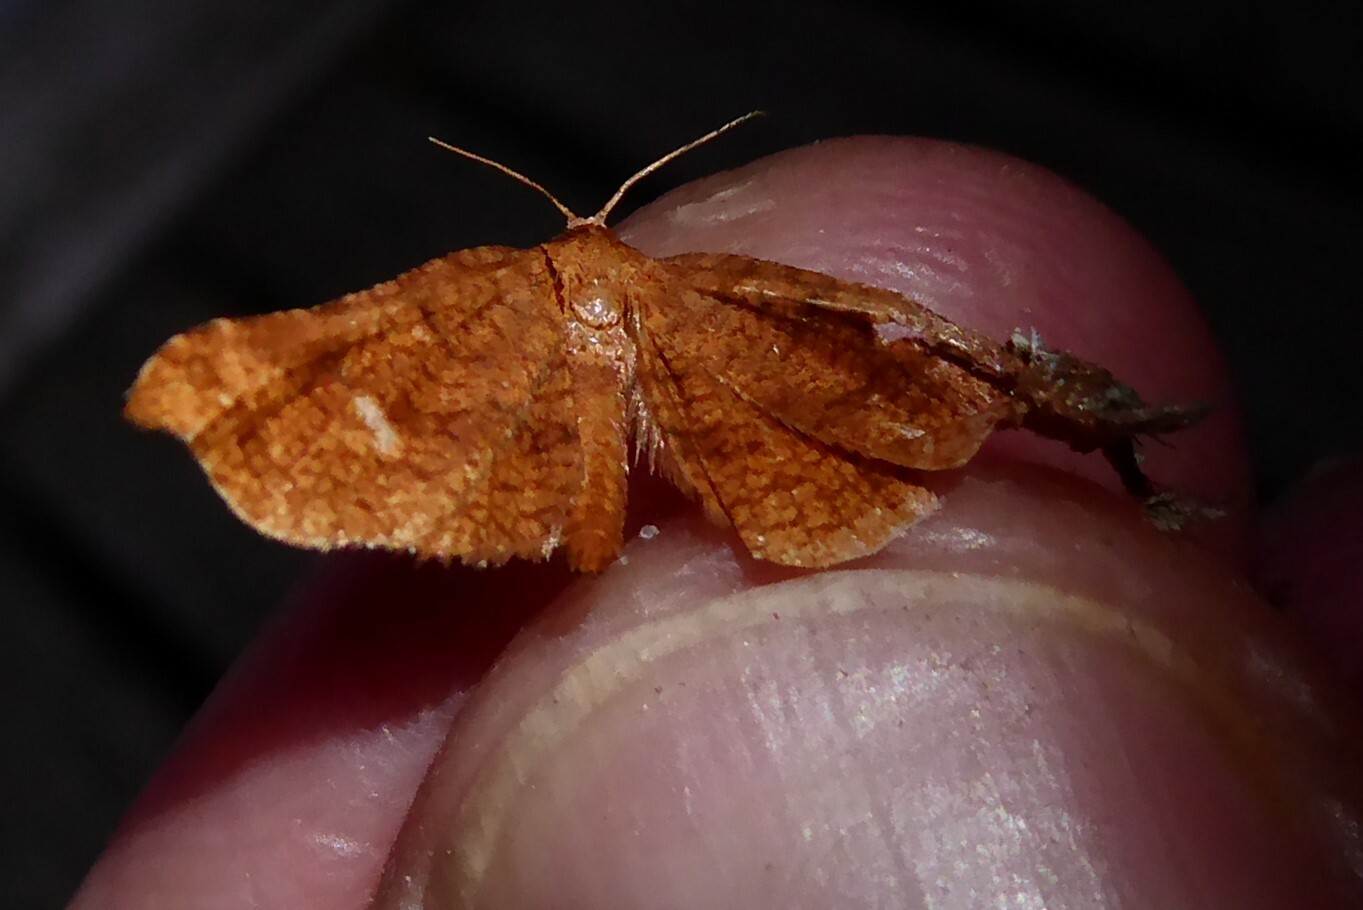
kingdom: Animalia
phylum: Arthropoda
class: Insecta
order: Lepidoptera
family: Thyrididae
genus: Morova
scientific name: Morova subfasciata
